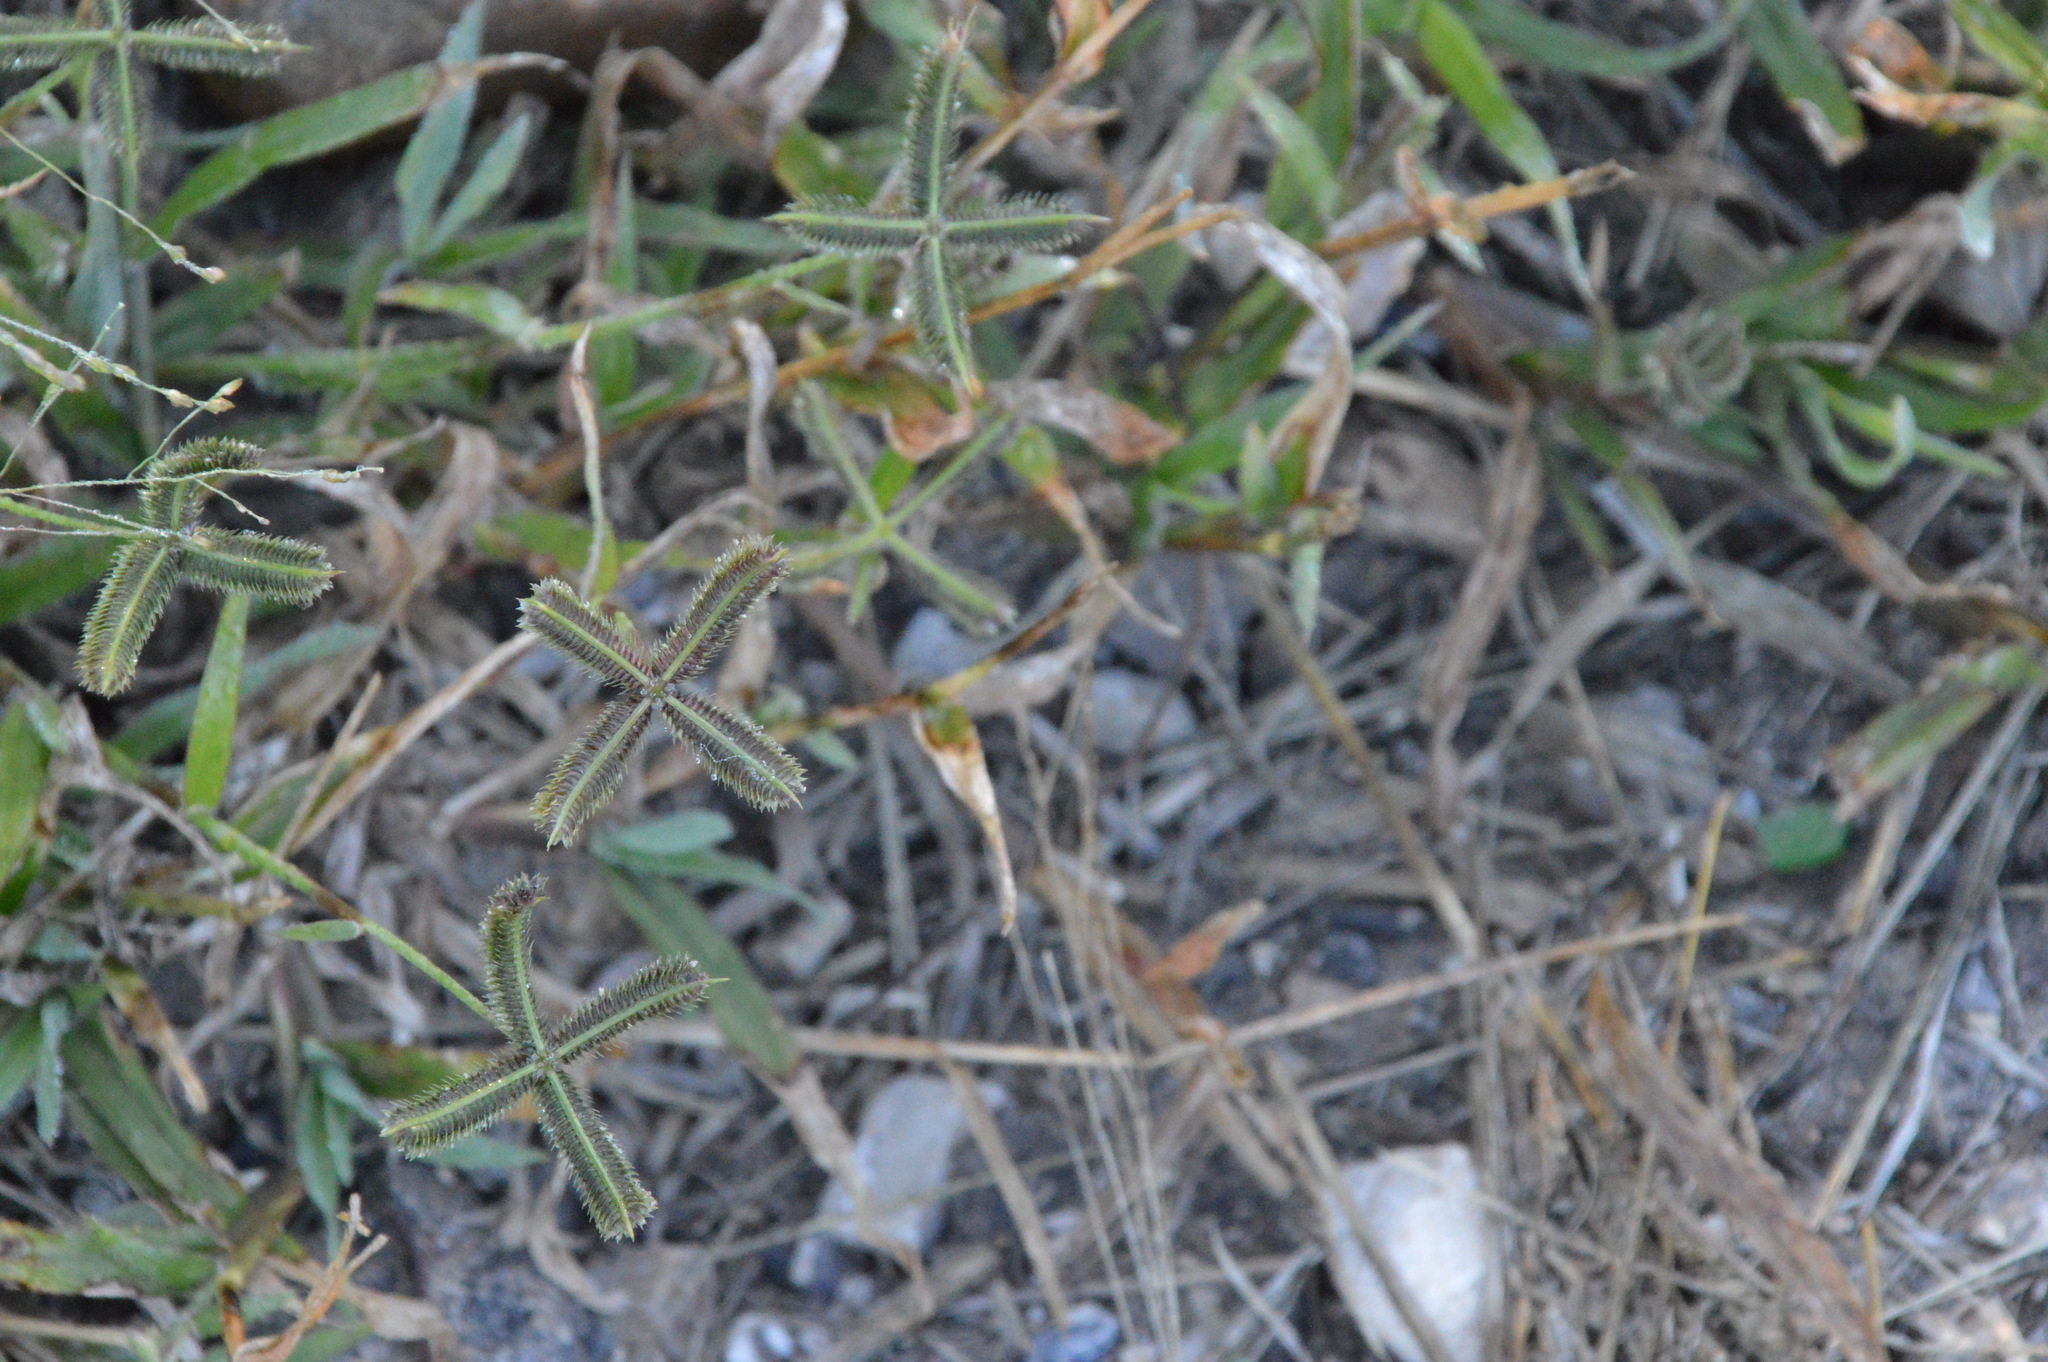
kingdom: Plantae
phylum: Tracheophyta
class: Liliopsida
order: Poales
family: Poaceae
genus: Dactyloctenium
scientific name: Dactyloctenium aegyptium
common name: Egyptian grass
